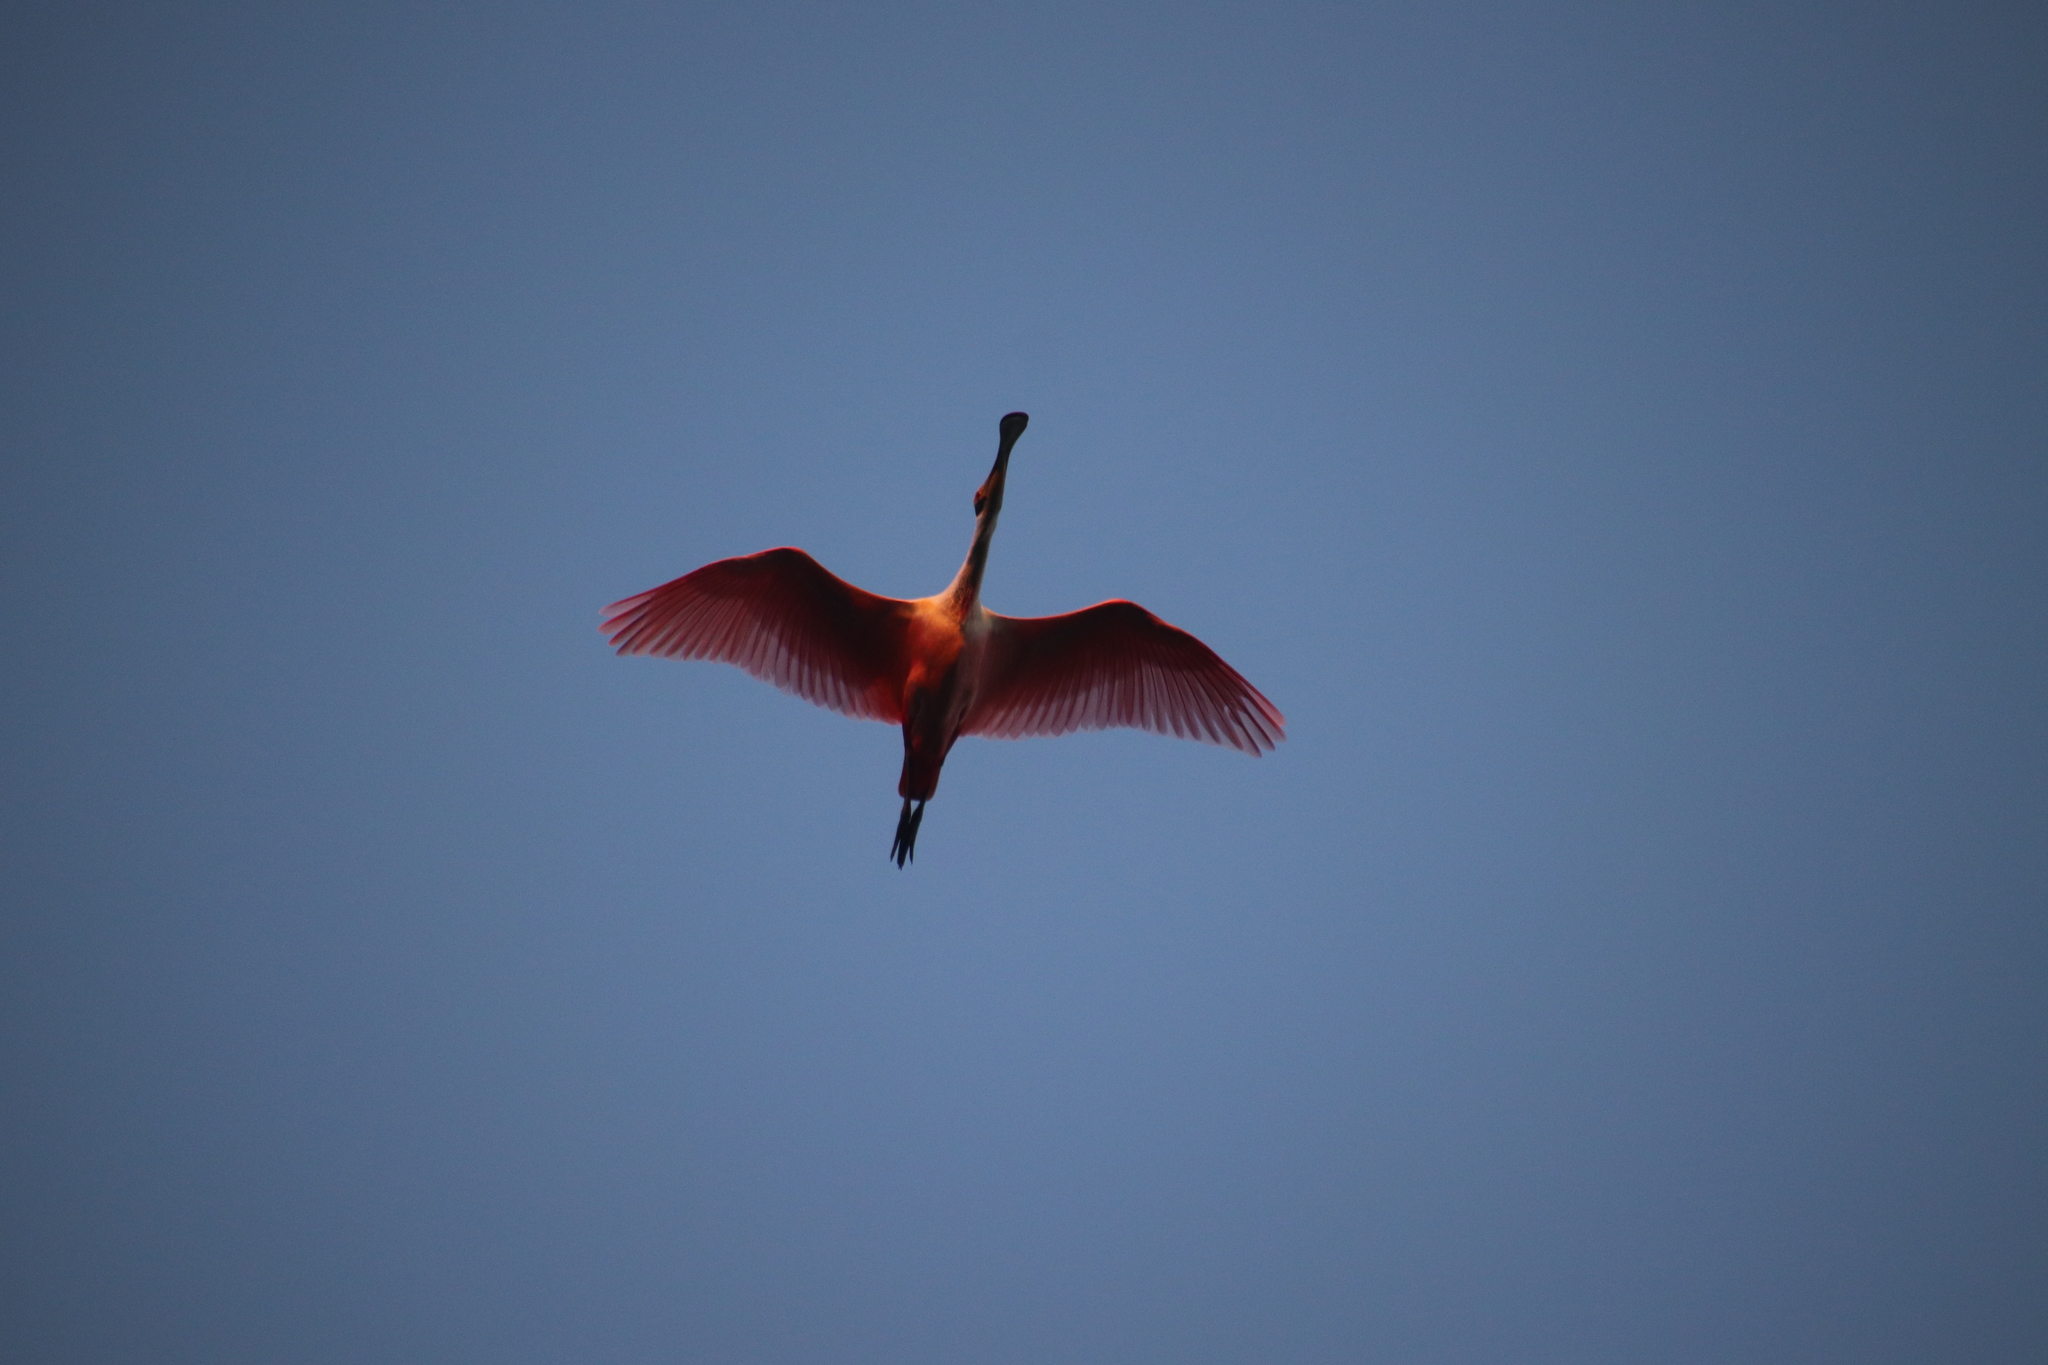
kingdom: Animalia
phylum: Chordata
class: Aves
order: Pelecaniformes
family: Threskiornithidae
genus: Platalea
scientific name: Platalea ajaja
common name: Roseate spoonbill
